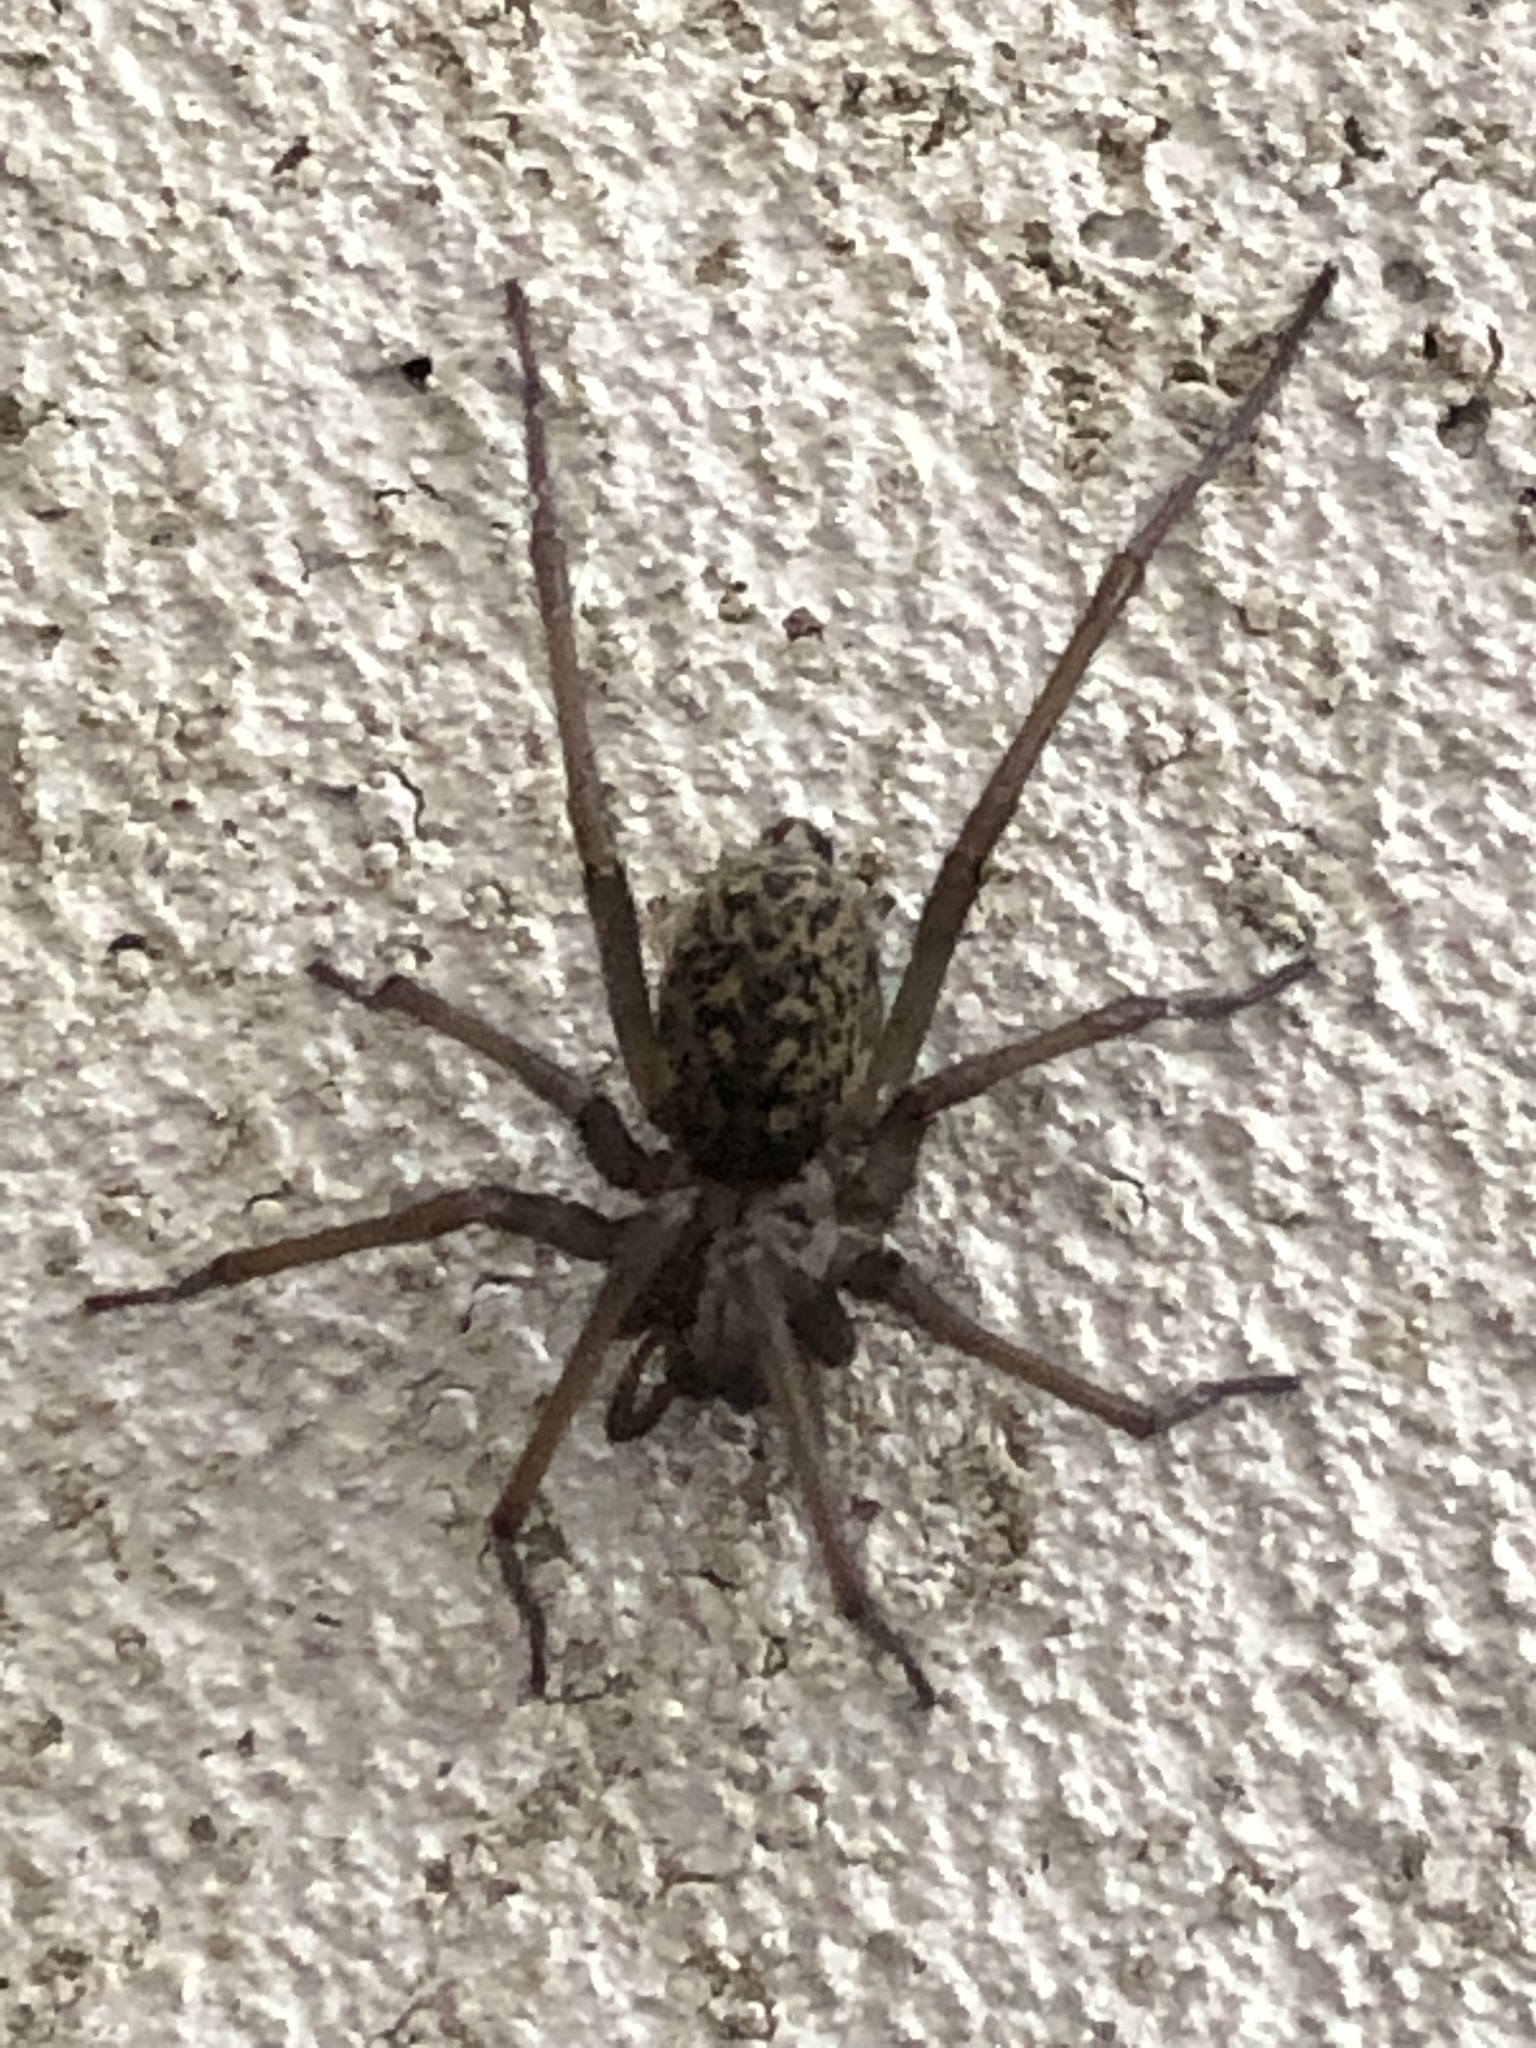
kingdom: Animalia
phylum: Arthropoda
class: Arachnida
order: Araneae
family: Agelenidae
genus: Eratigena
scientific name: Eratigena atrica
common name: Giant house spider
